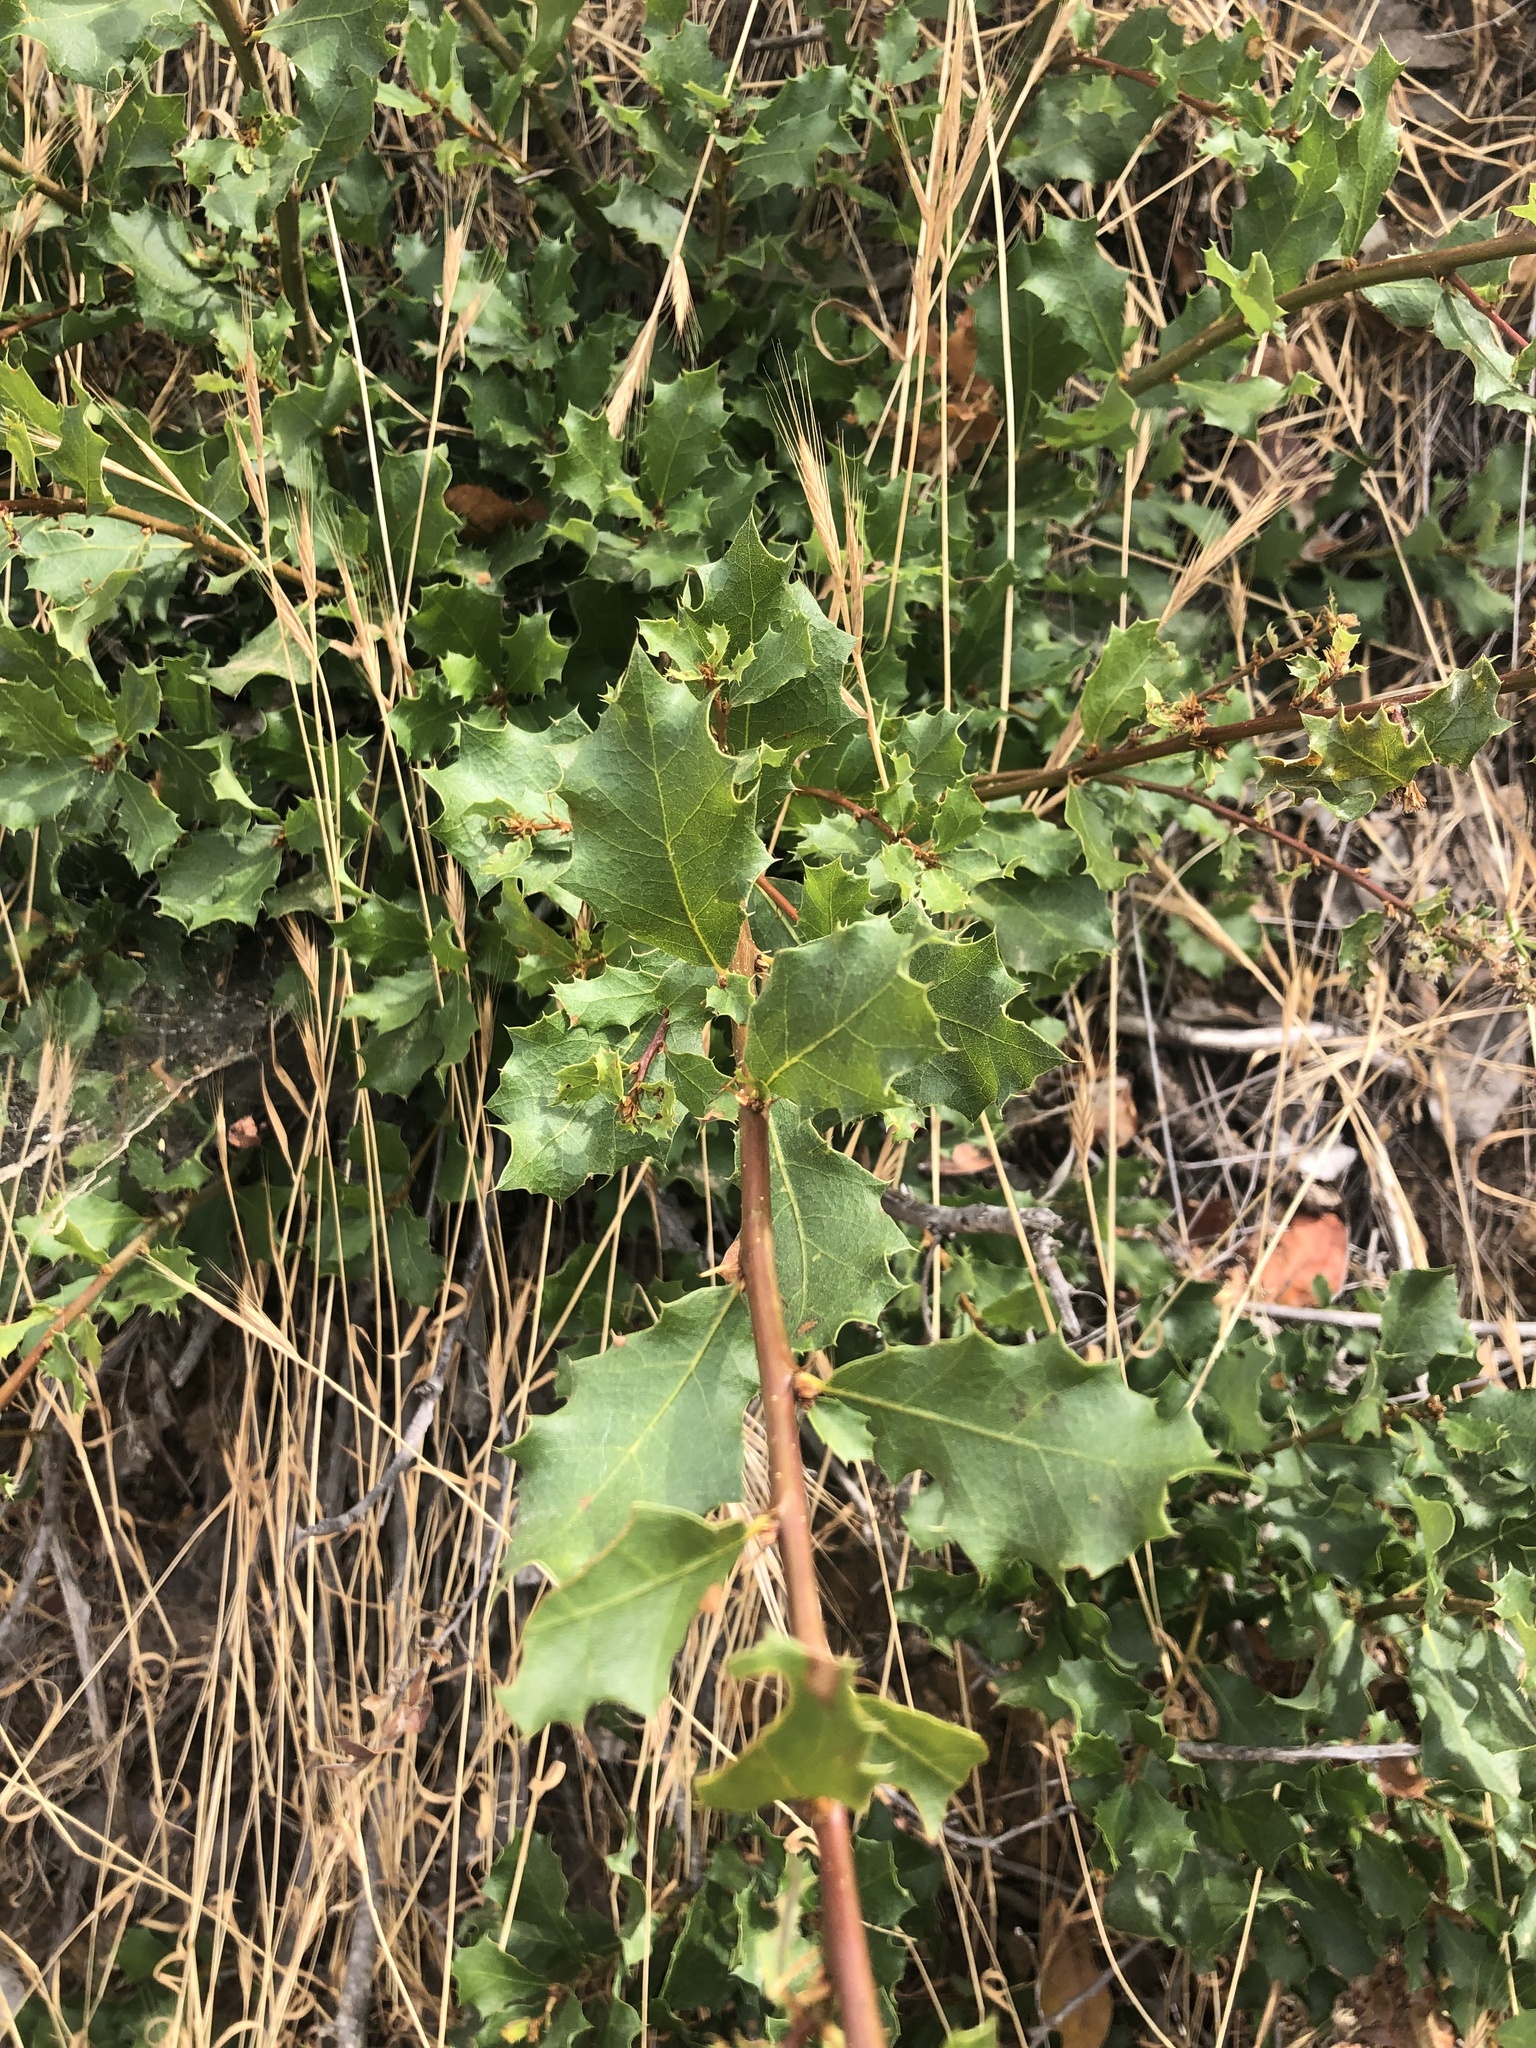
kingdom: Plantae
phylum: Tracheophyta
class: Magnoliopsida
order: Fagales
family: Fagaceae
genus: Quercus
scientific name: Quercus berberidifolia
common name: California scrub oak
